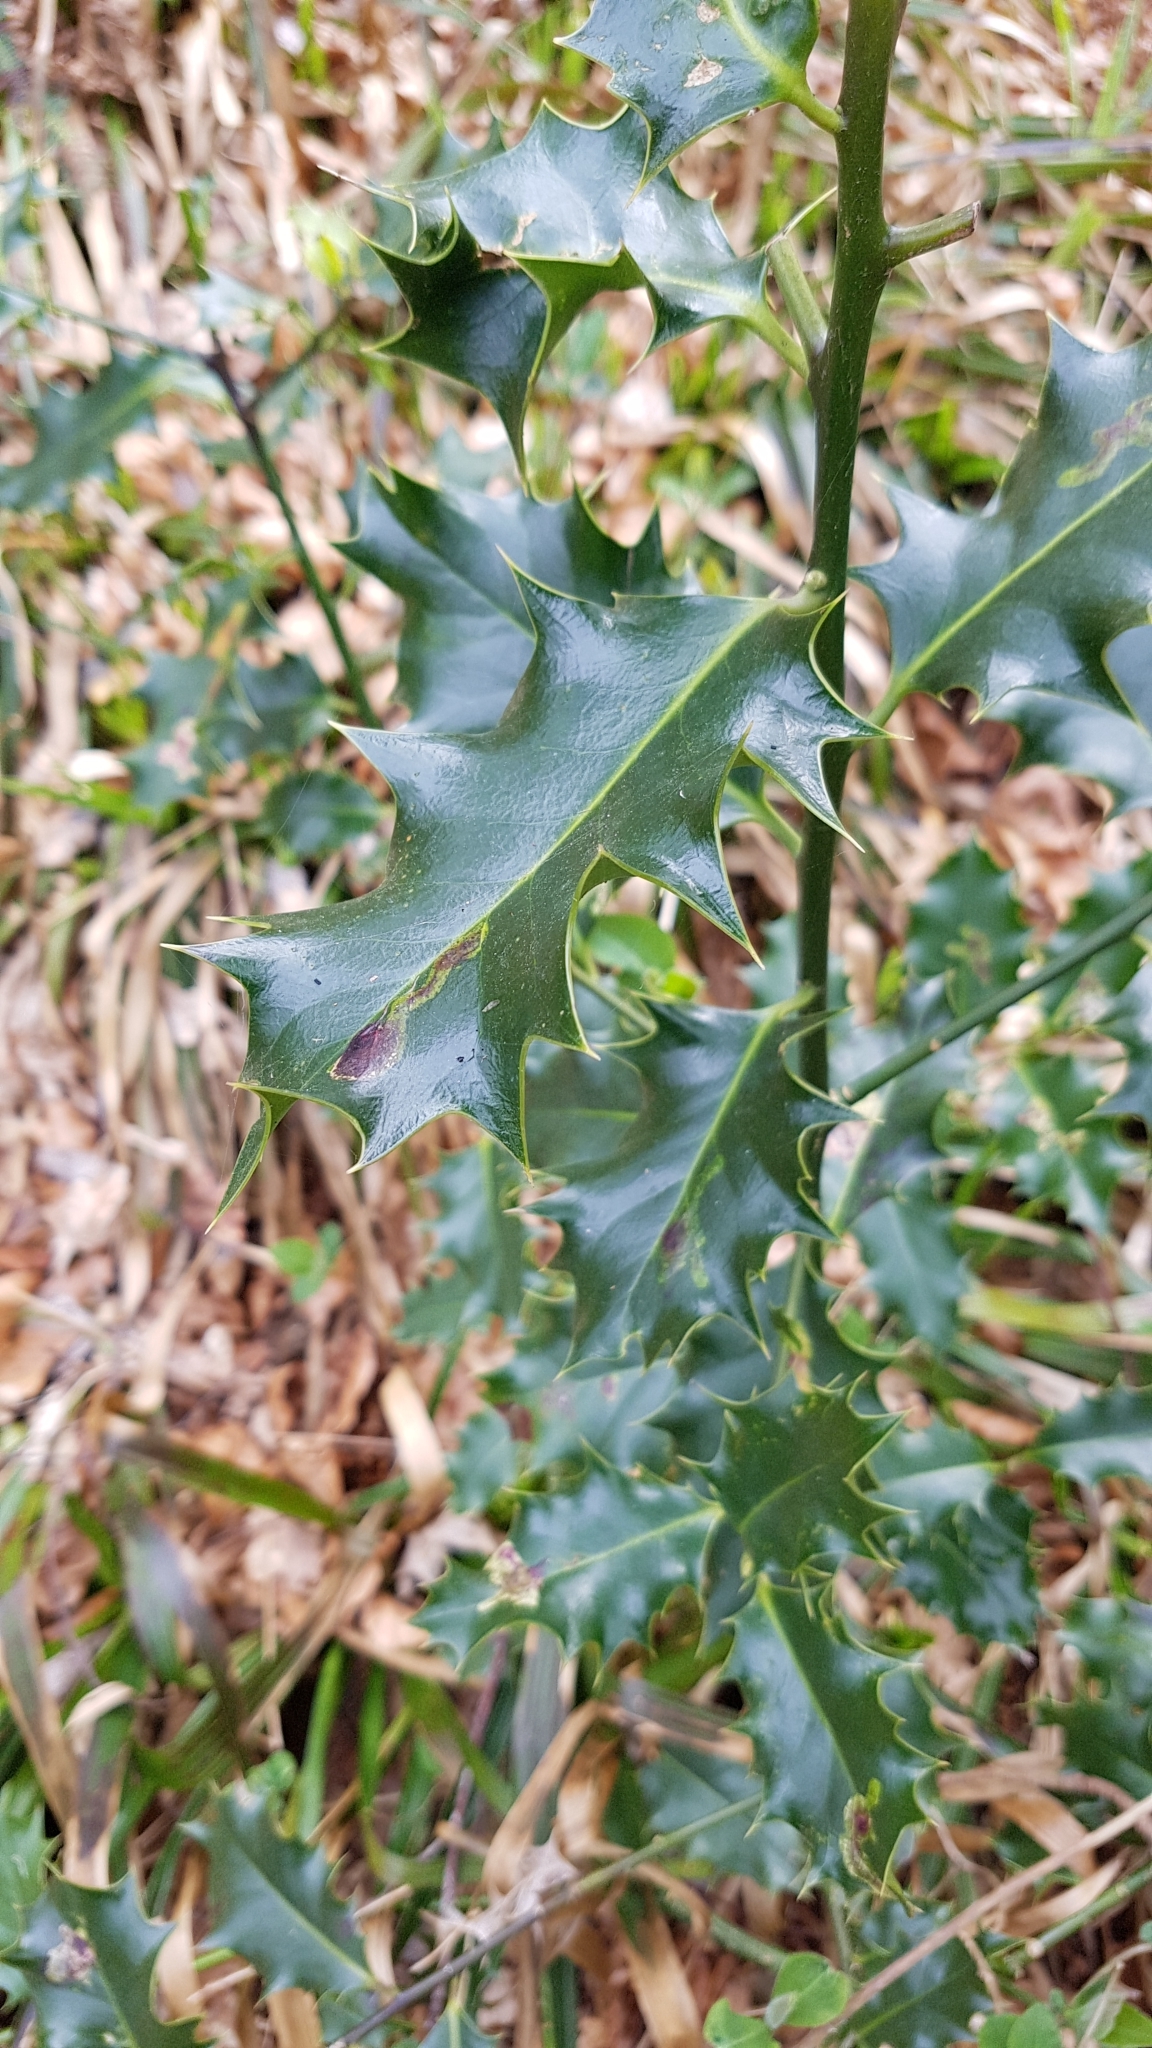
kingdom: Plantae
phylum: Tracheophyta
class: Magnoliopsida
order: Aquifoliales
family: Aquifoliaceae
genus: Ilex
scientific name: Ilex aquifolium
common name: English holly
